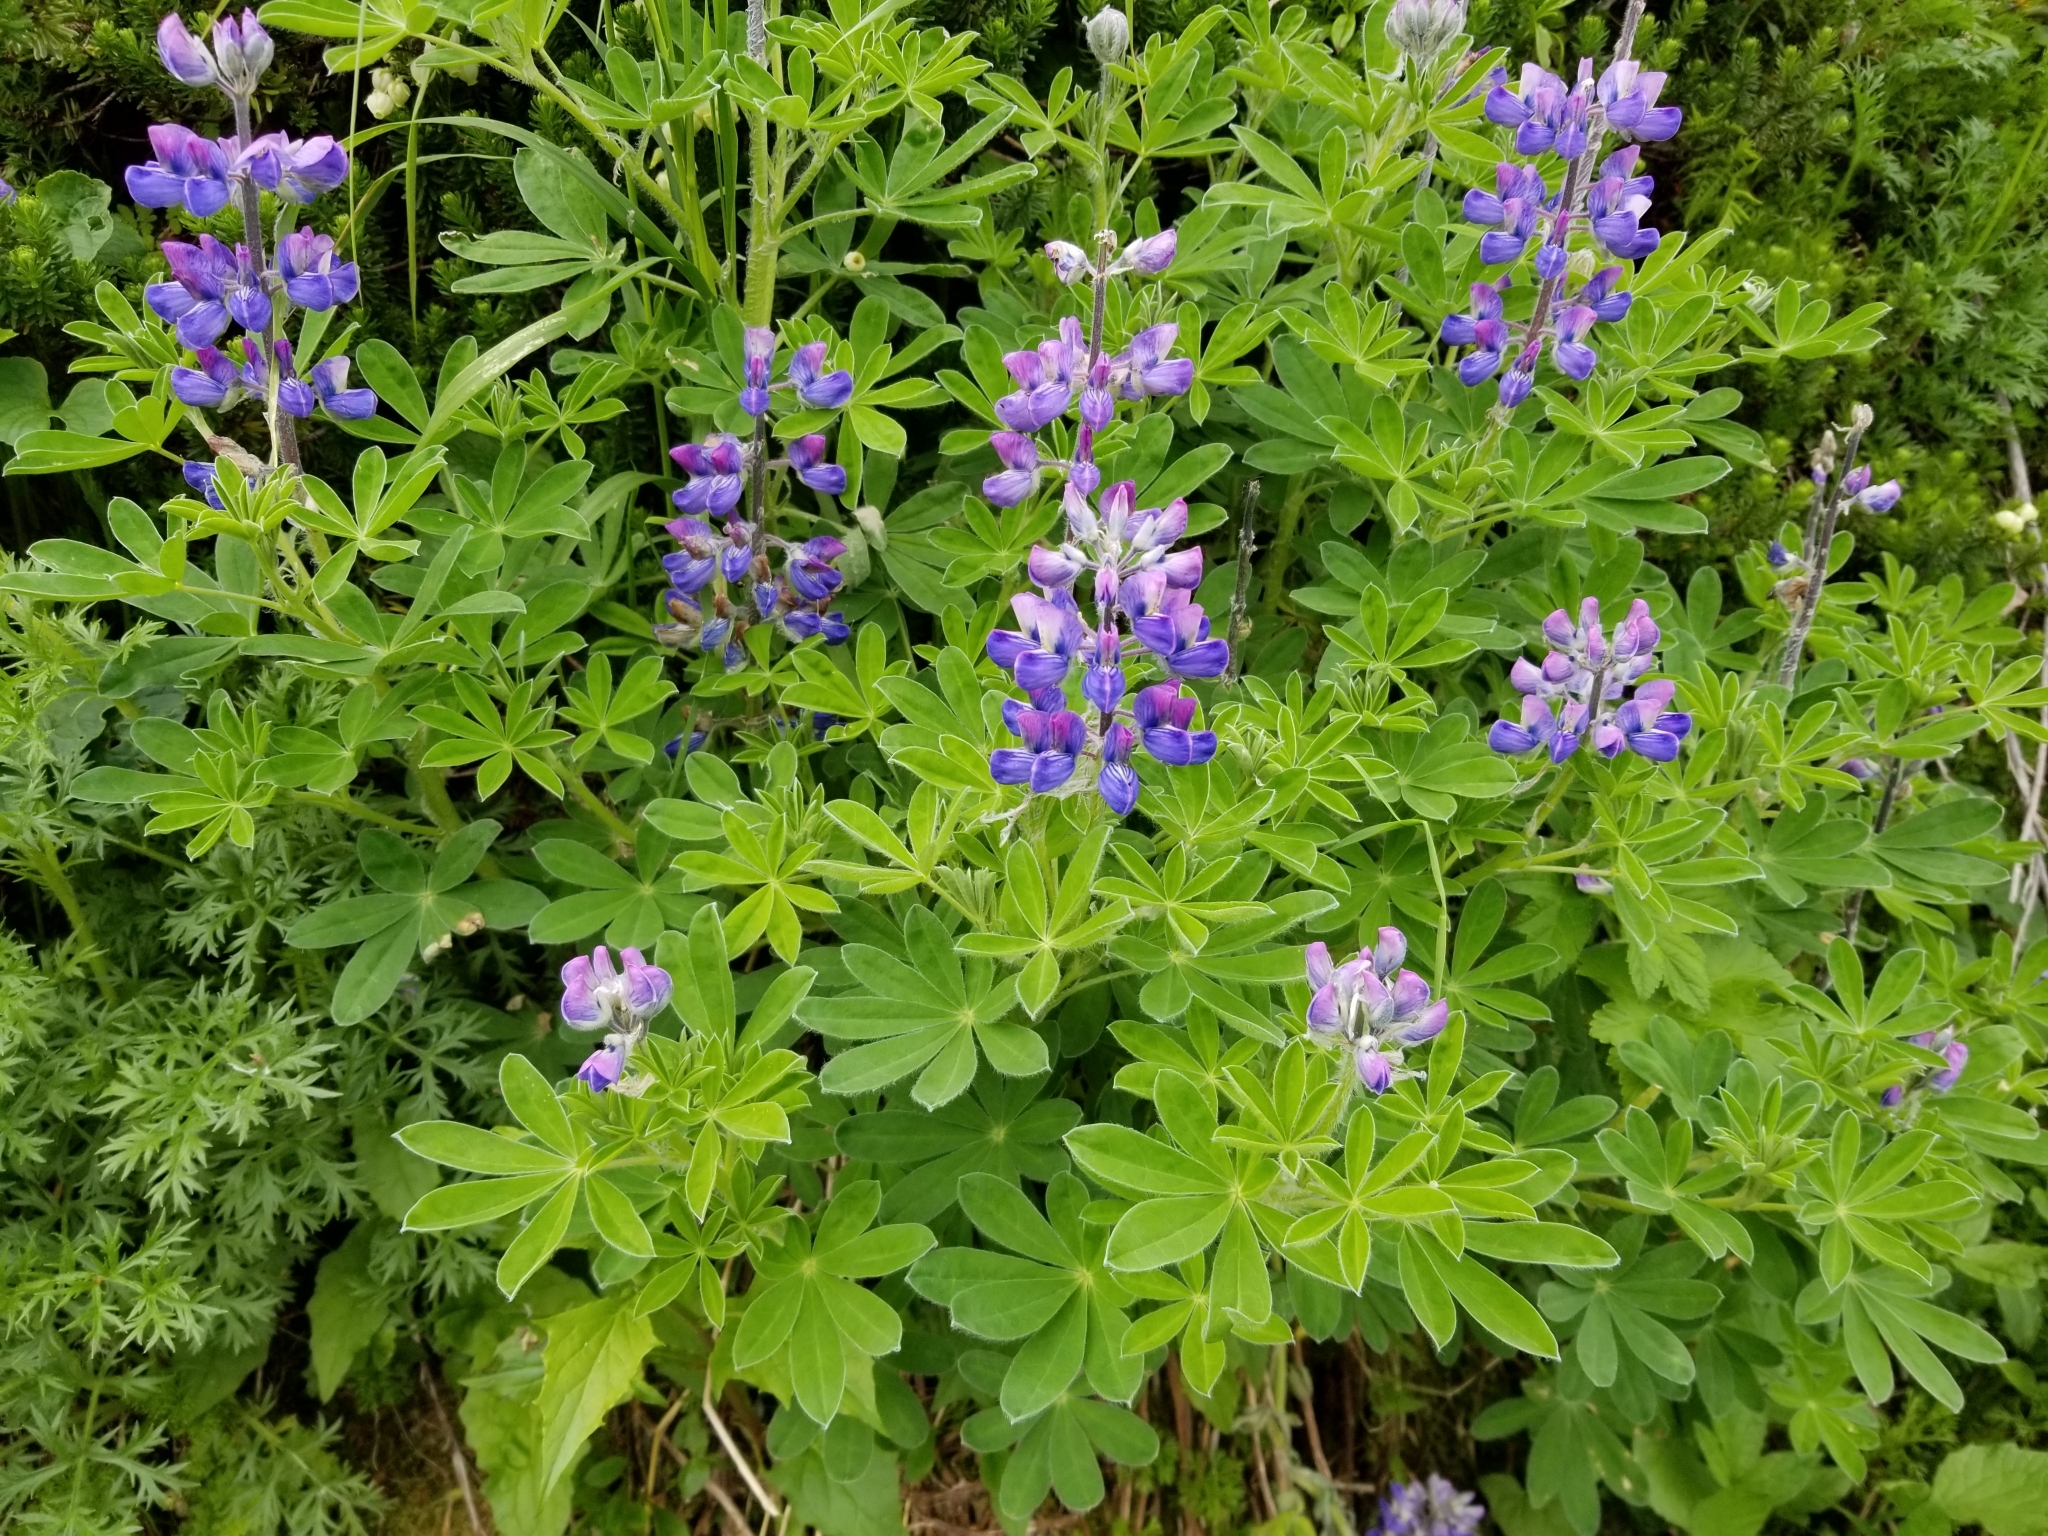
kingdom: Plantae
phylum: Tracheophyta
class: Magnoliopsida
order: Fabales
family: Fabaceae
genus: Lupinus
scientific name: Lupinus nootkatensis
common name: Nootka lupine
